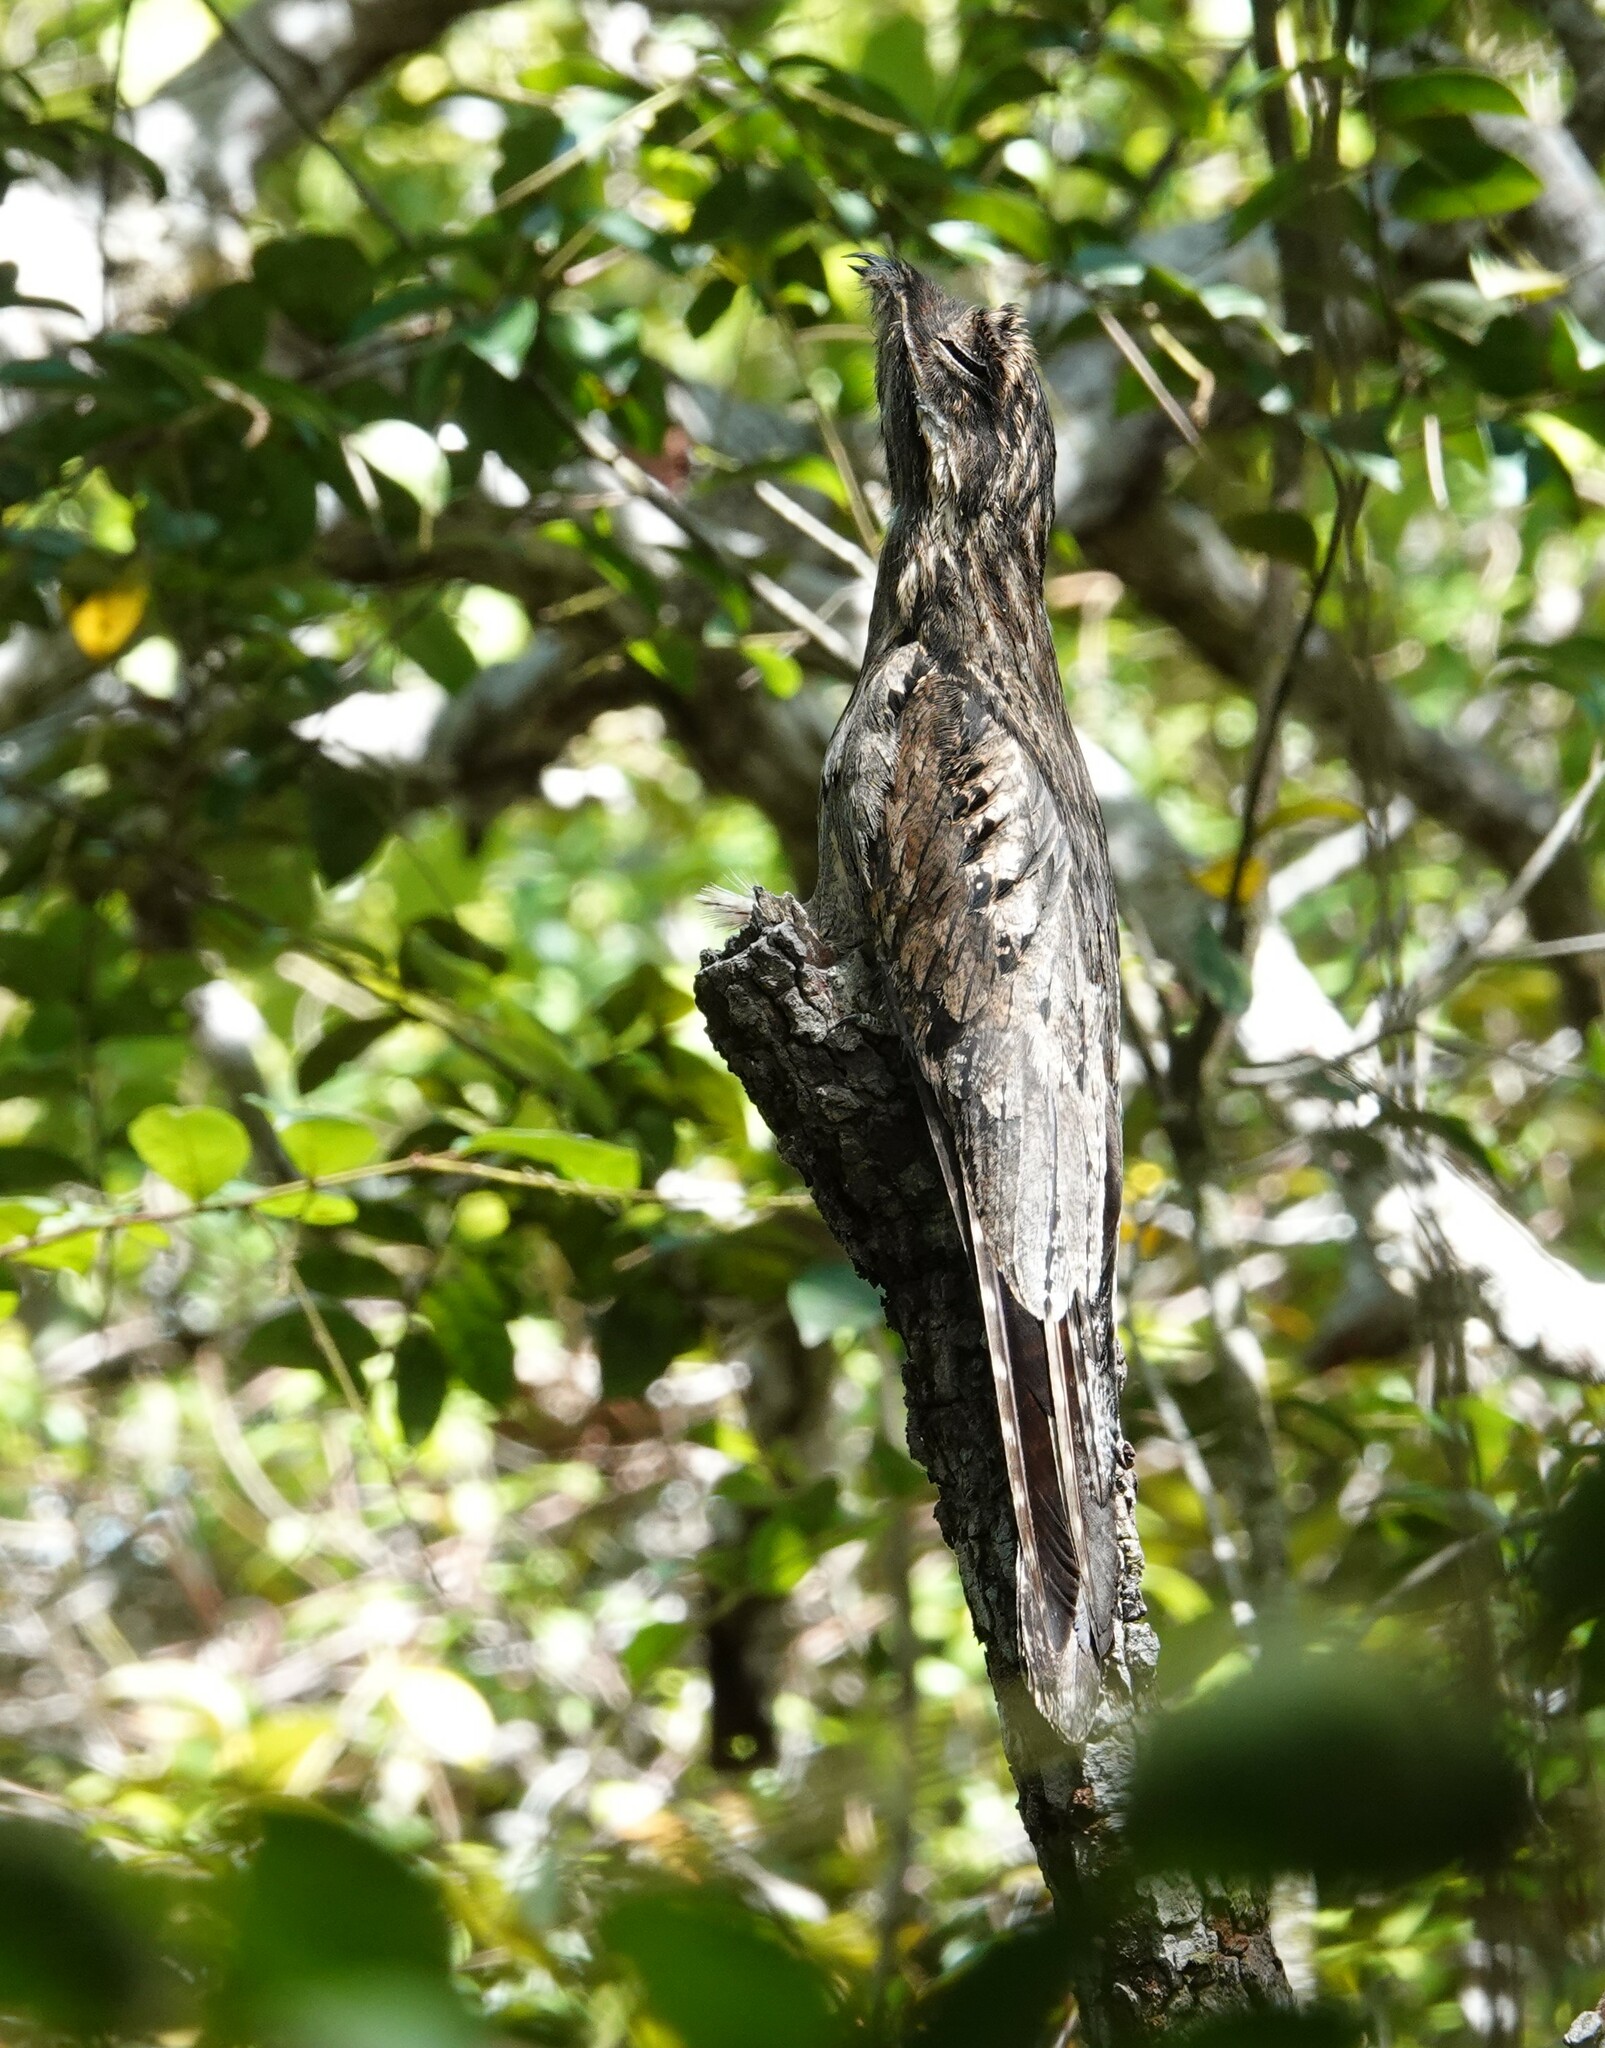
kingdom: Animalia
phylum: Chordata
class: Aves
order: Nyctibiiformes
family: Nyctibiidae
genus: Nyctibius
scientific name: Nyctibius griseus
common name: Common potoo
